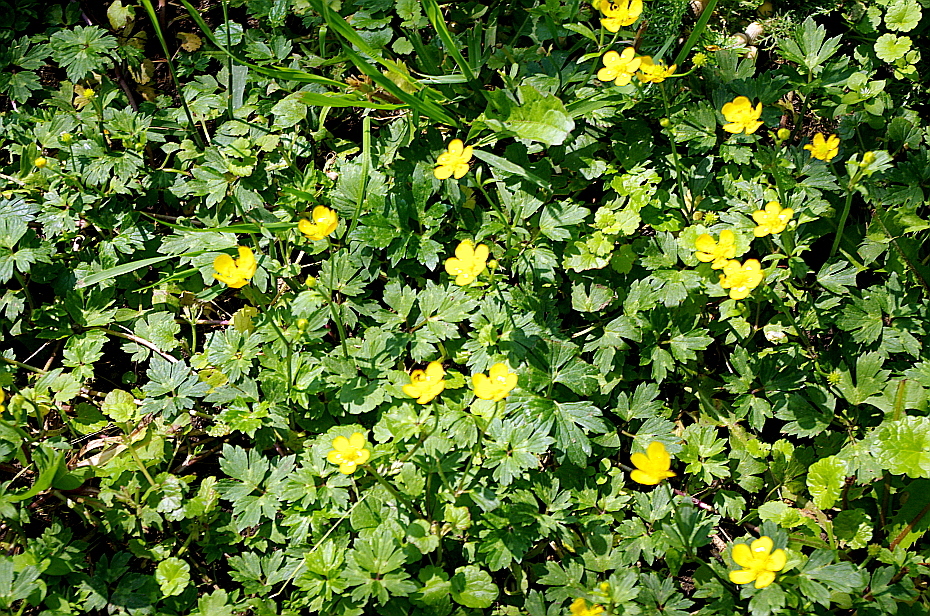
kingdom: Plantae
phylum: Tracheophyta
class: Magnoliopsida
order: Ranunculales
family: Ranunculaceae
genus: Ranunculus
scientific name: Ranunculus repens
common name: Creeping buttercup
